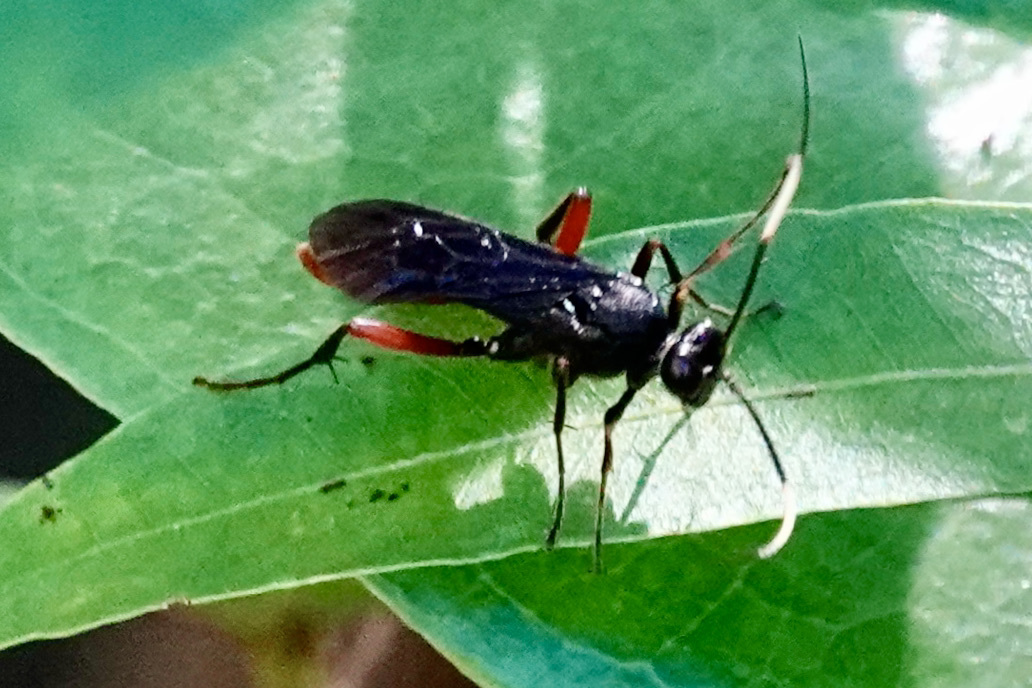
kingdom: Animalia
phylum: Arthropoda
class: Insecta
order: Hymenoptera
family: Ichneumonidae
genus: Limonethe
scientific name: Limonethe maurator
